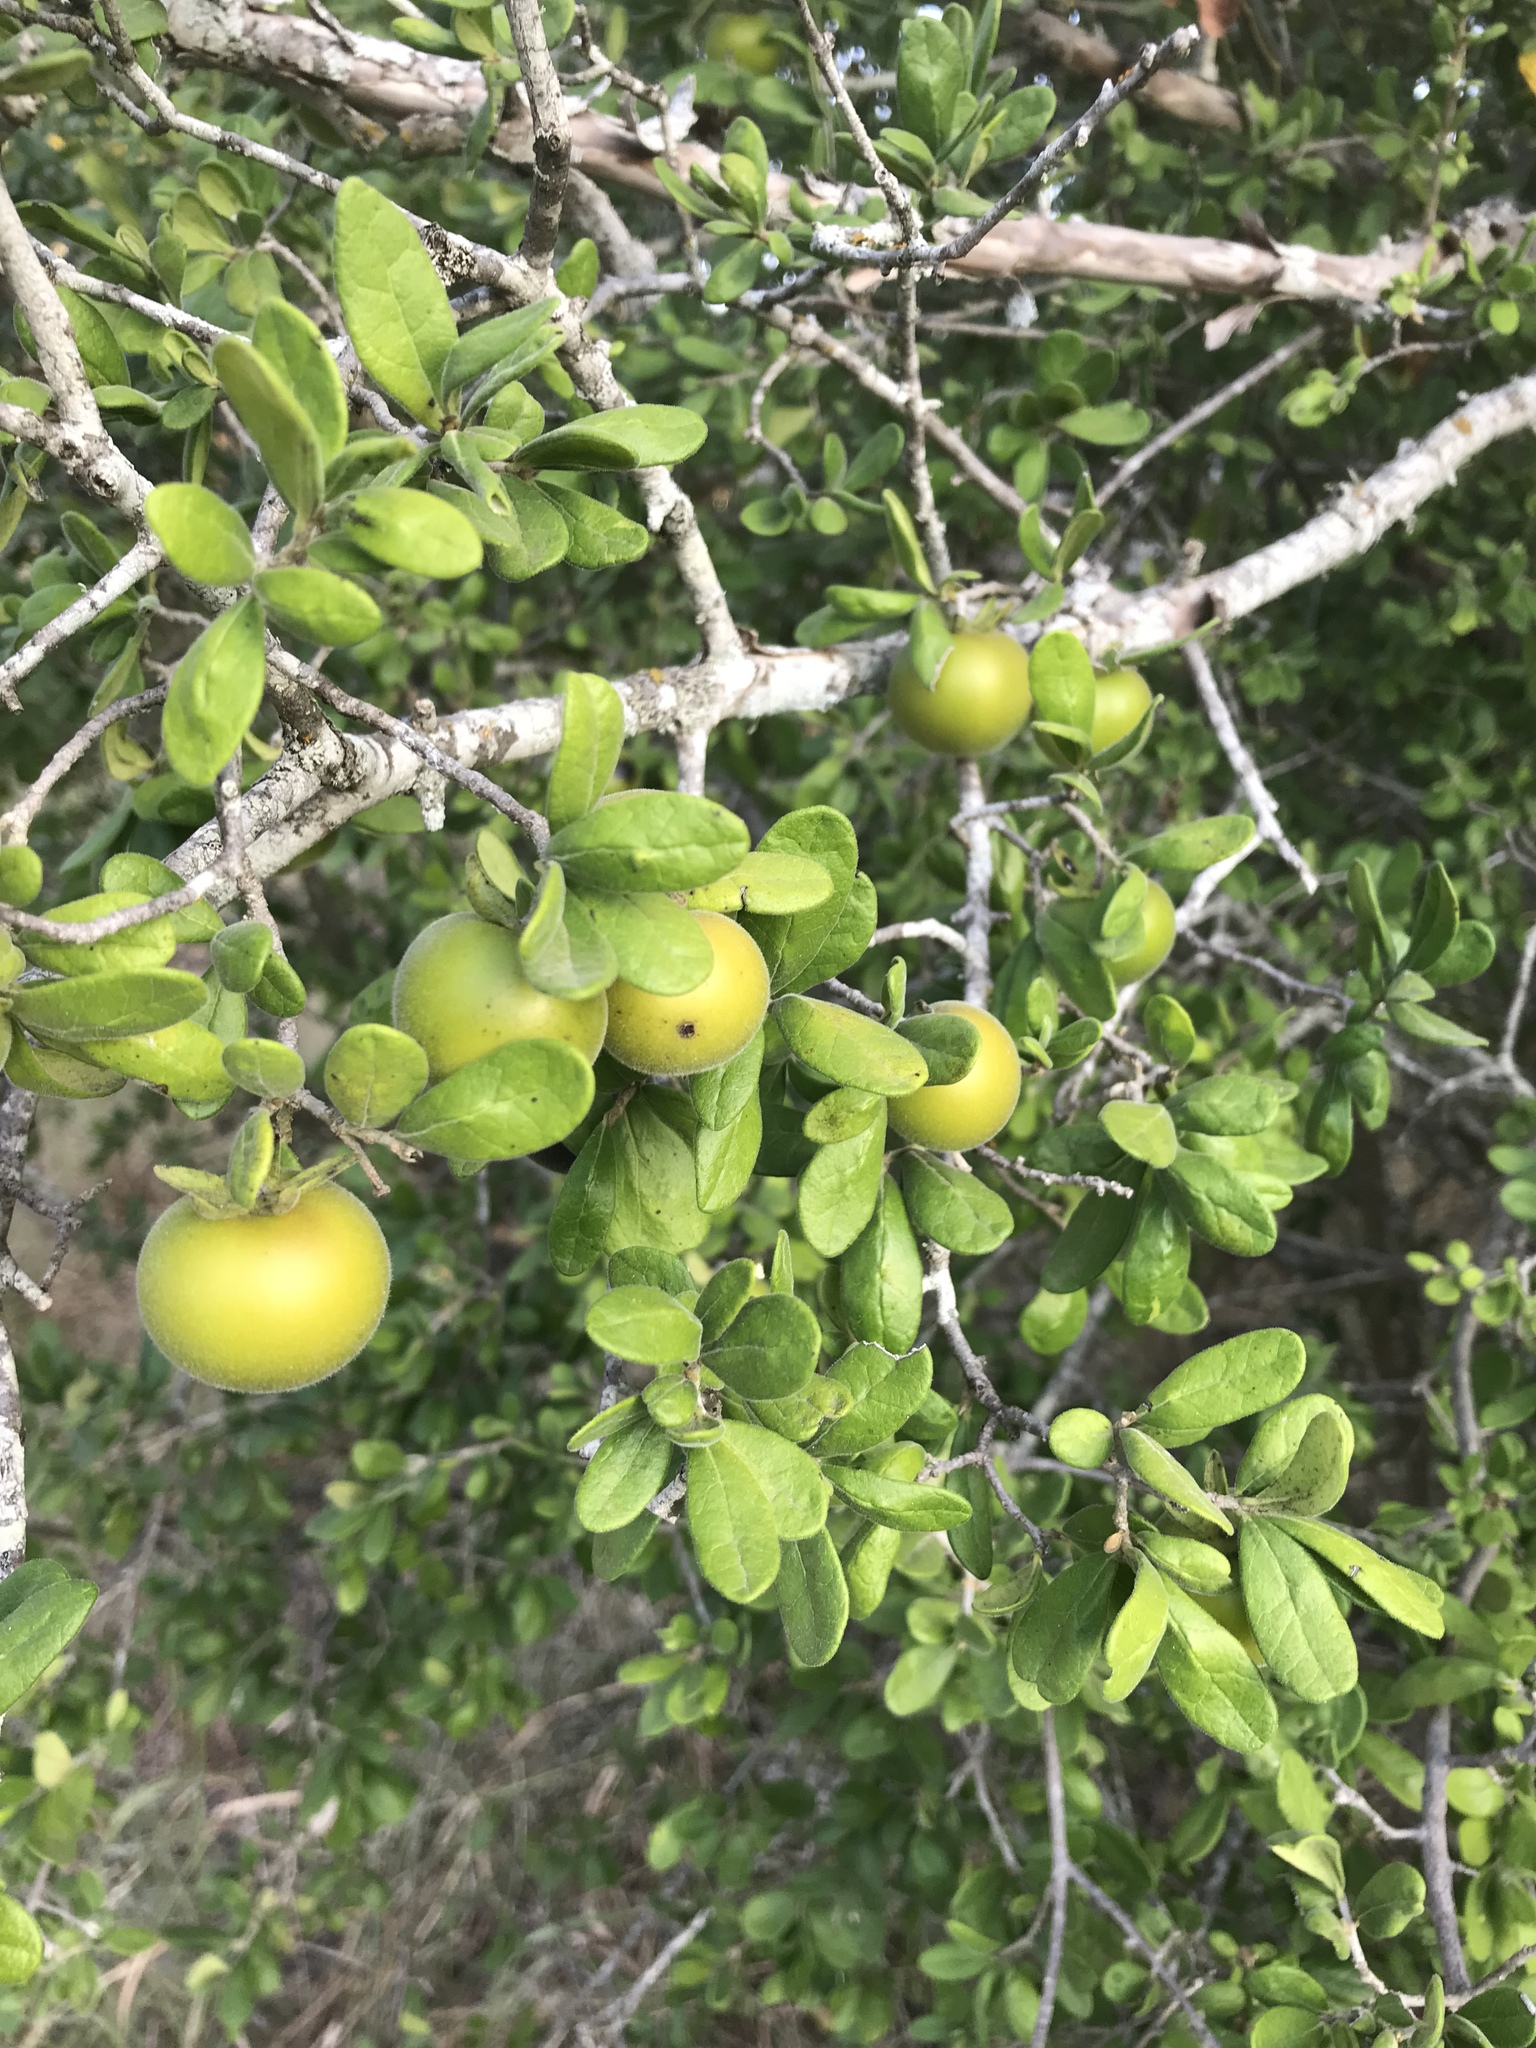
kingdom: Plantae
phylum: Tracheophyta
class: Magnoliopsida
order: Ericales
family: Ebenaceae
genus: Diospyros
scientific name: Diospyros texana
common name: Texas persimmon
